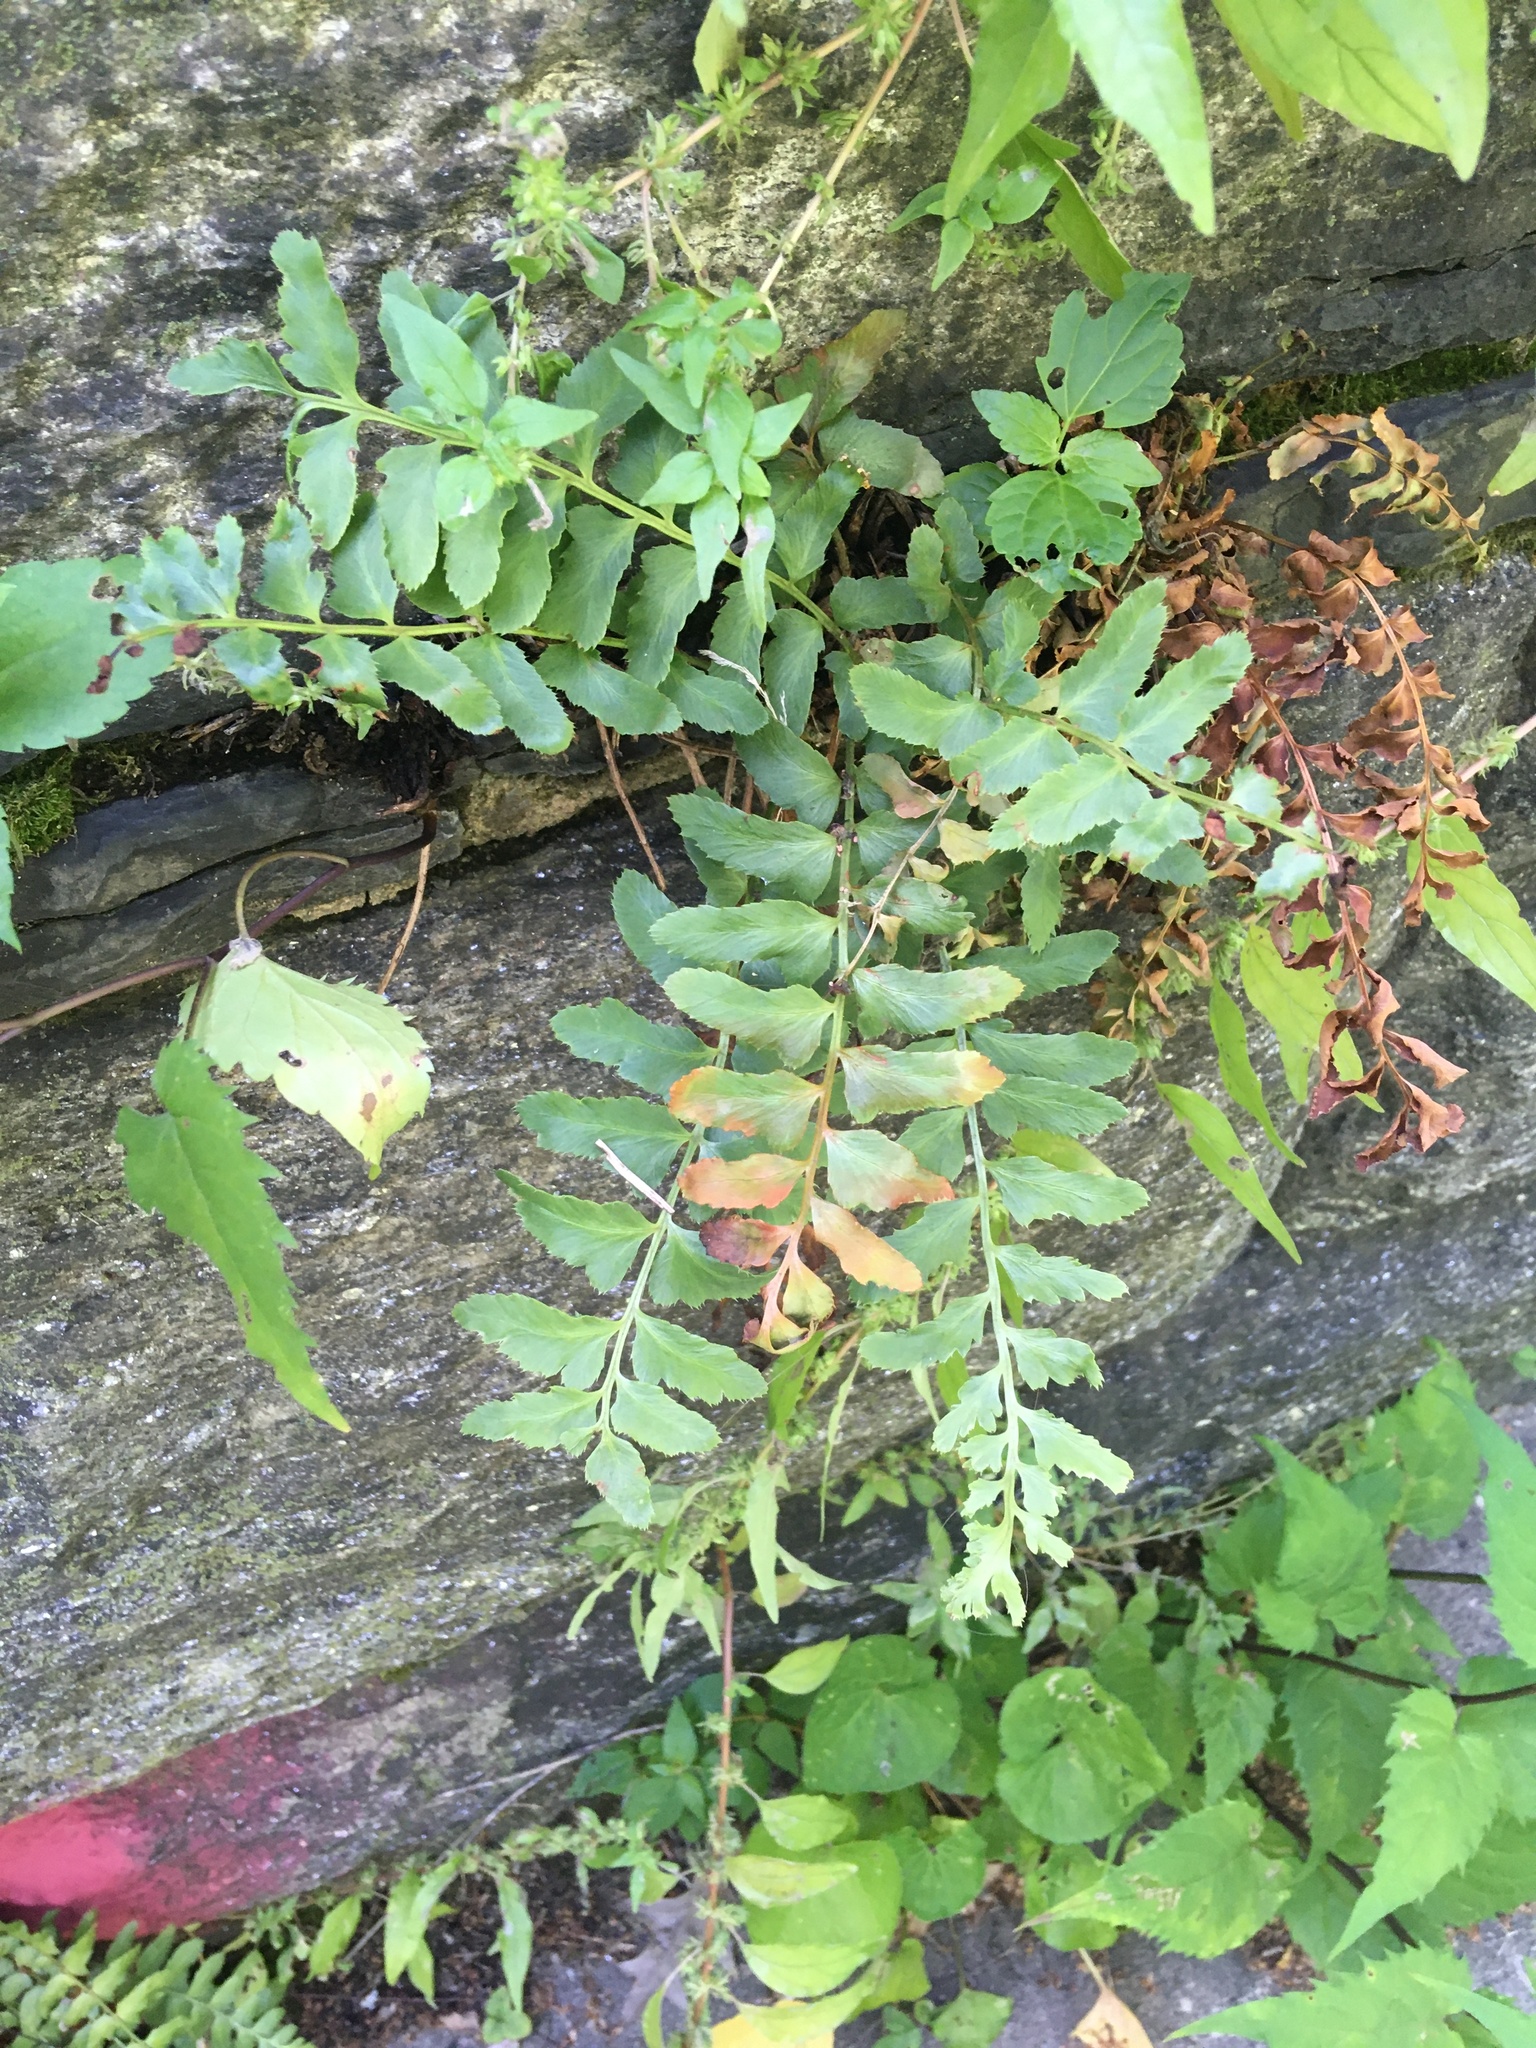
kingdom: Plantae
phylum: Tracheophyta
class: Polypodiopsida
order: Polypodiales
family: Dryopteridaceae
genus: Polystichum
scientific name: Polystichum acrostichoides
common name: Christmas fern
